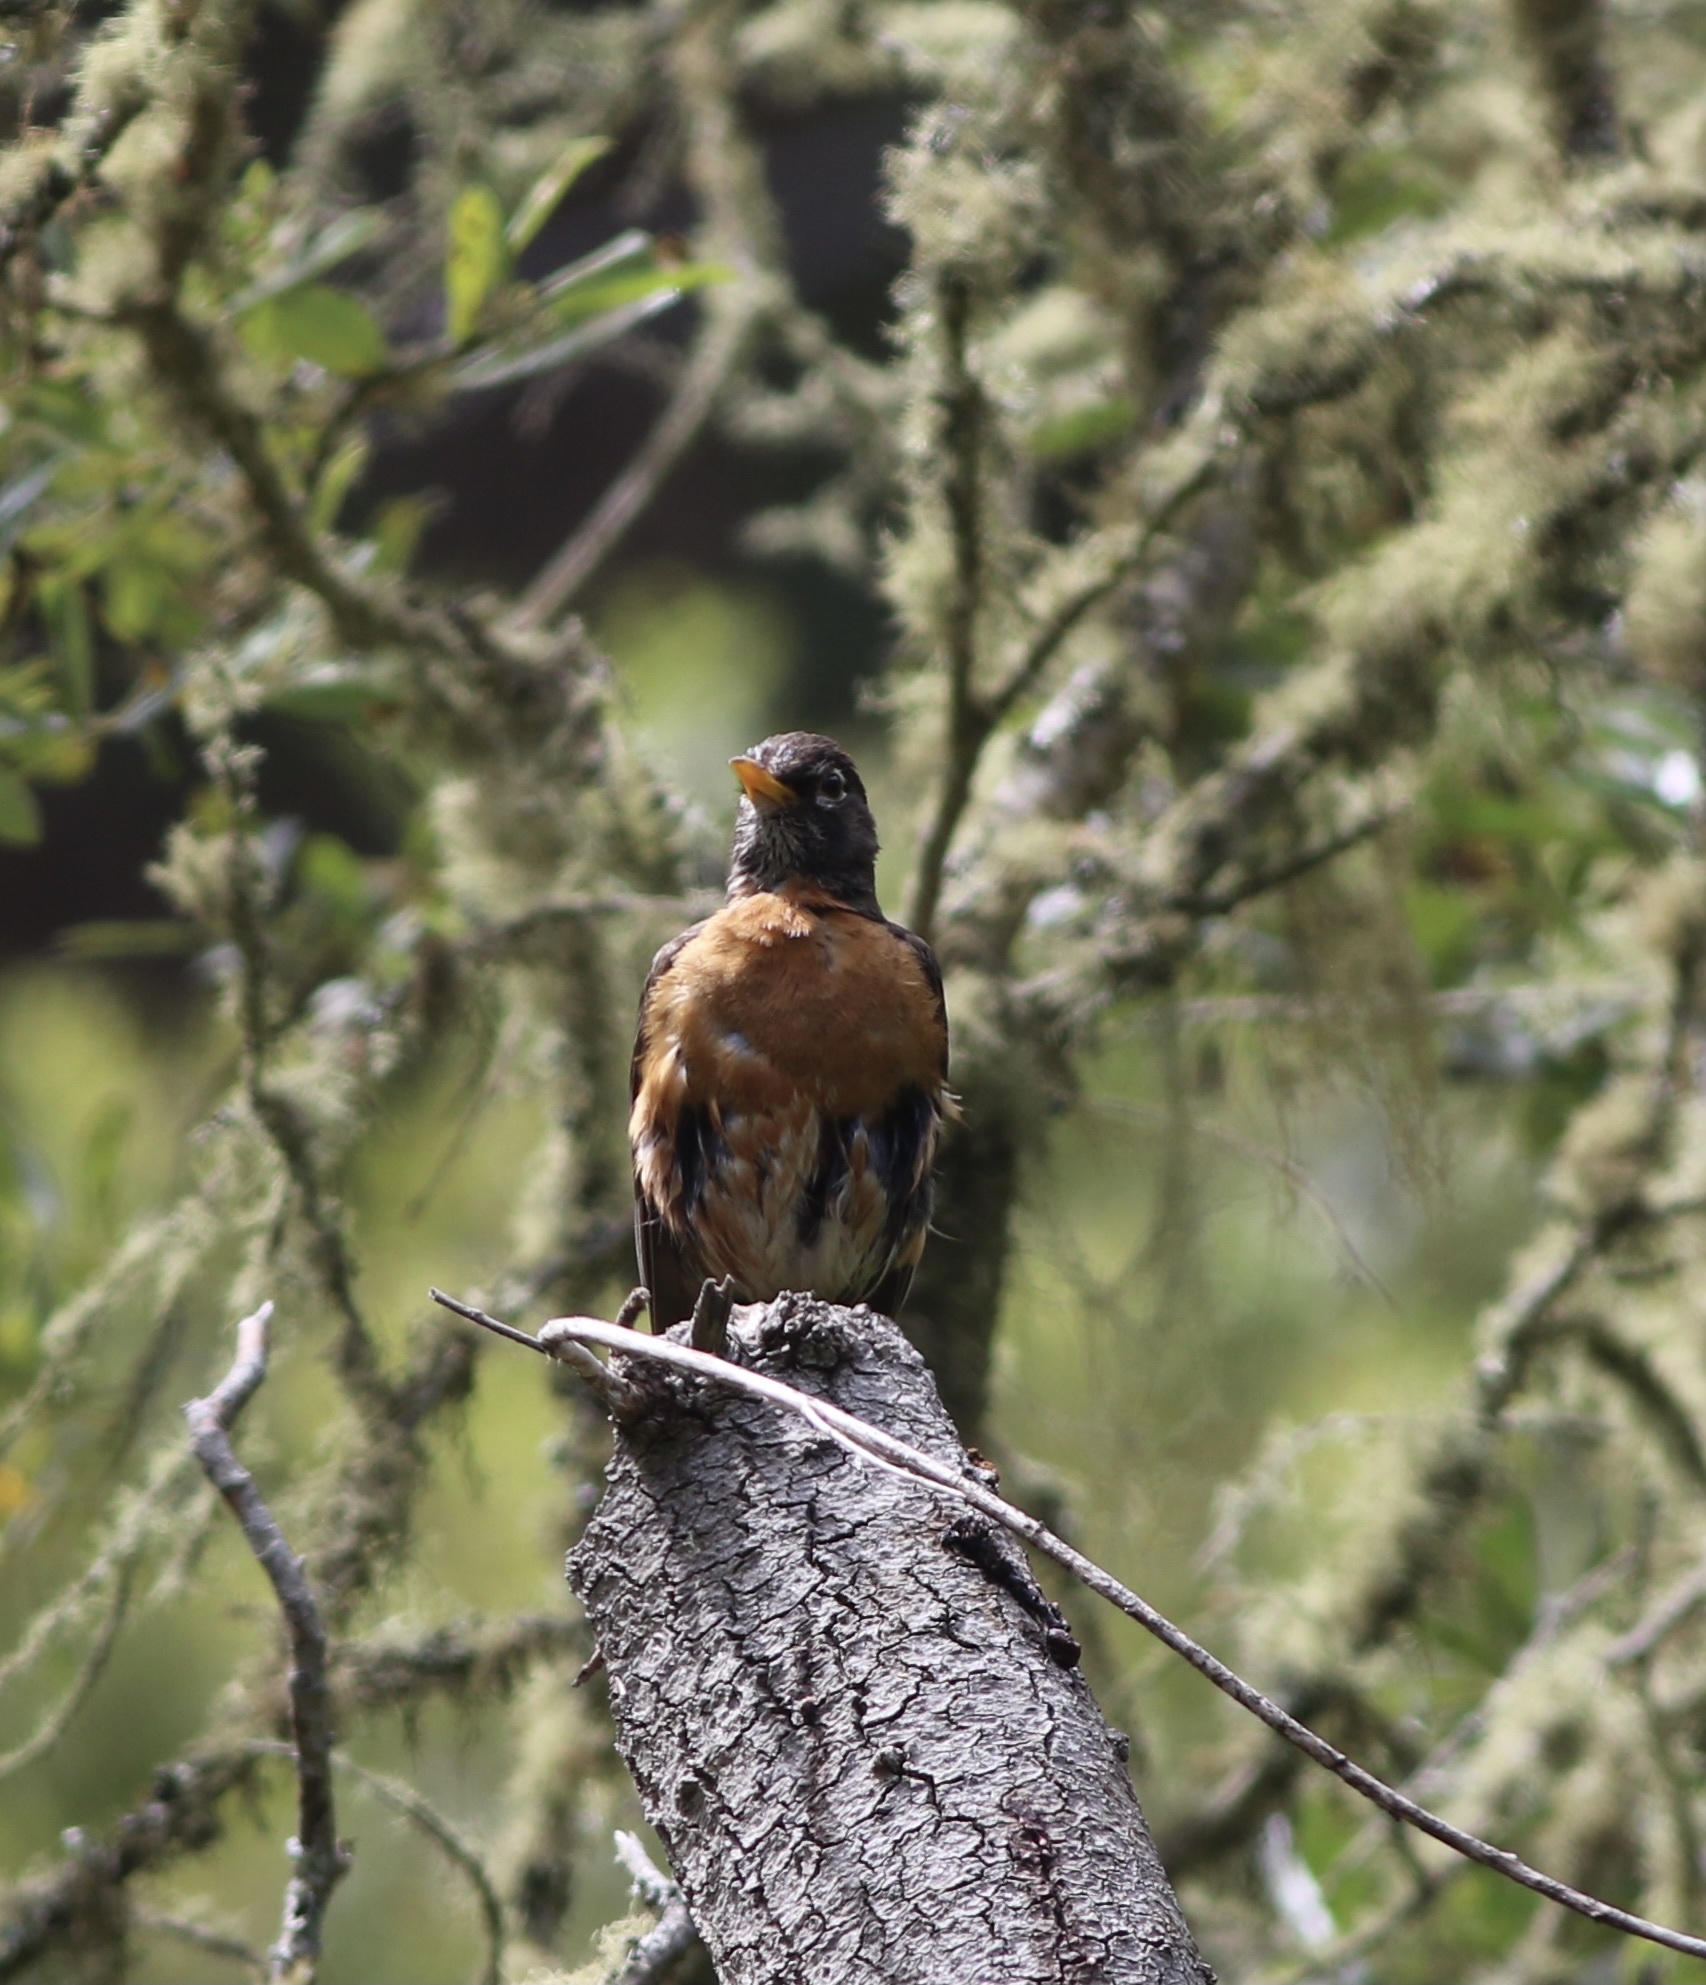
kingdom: Animalia
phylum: Chordata
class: Aves
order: Passeriformes
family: Turdidae
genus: Turdus
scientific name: Turdus migratorius
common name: American robin
